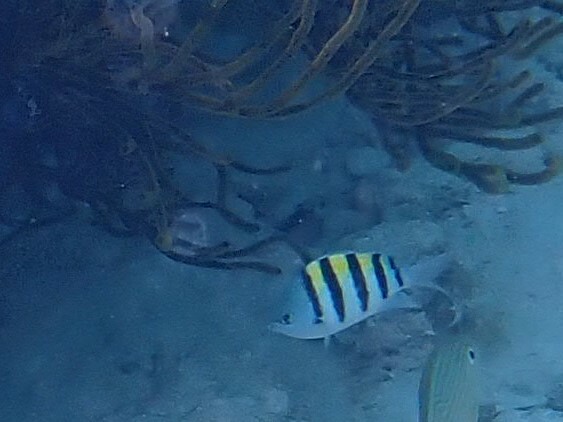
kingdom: Animalia
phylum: Chordata
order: Perciformes
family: Pomacentridae
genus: Abudefduf
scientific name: Abudefduf saxatilis
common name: Sergeant major
